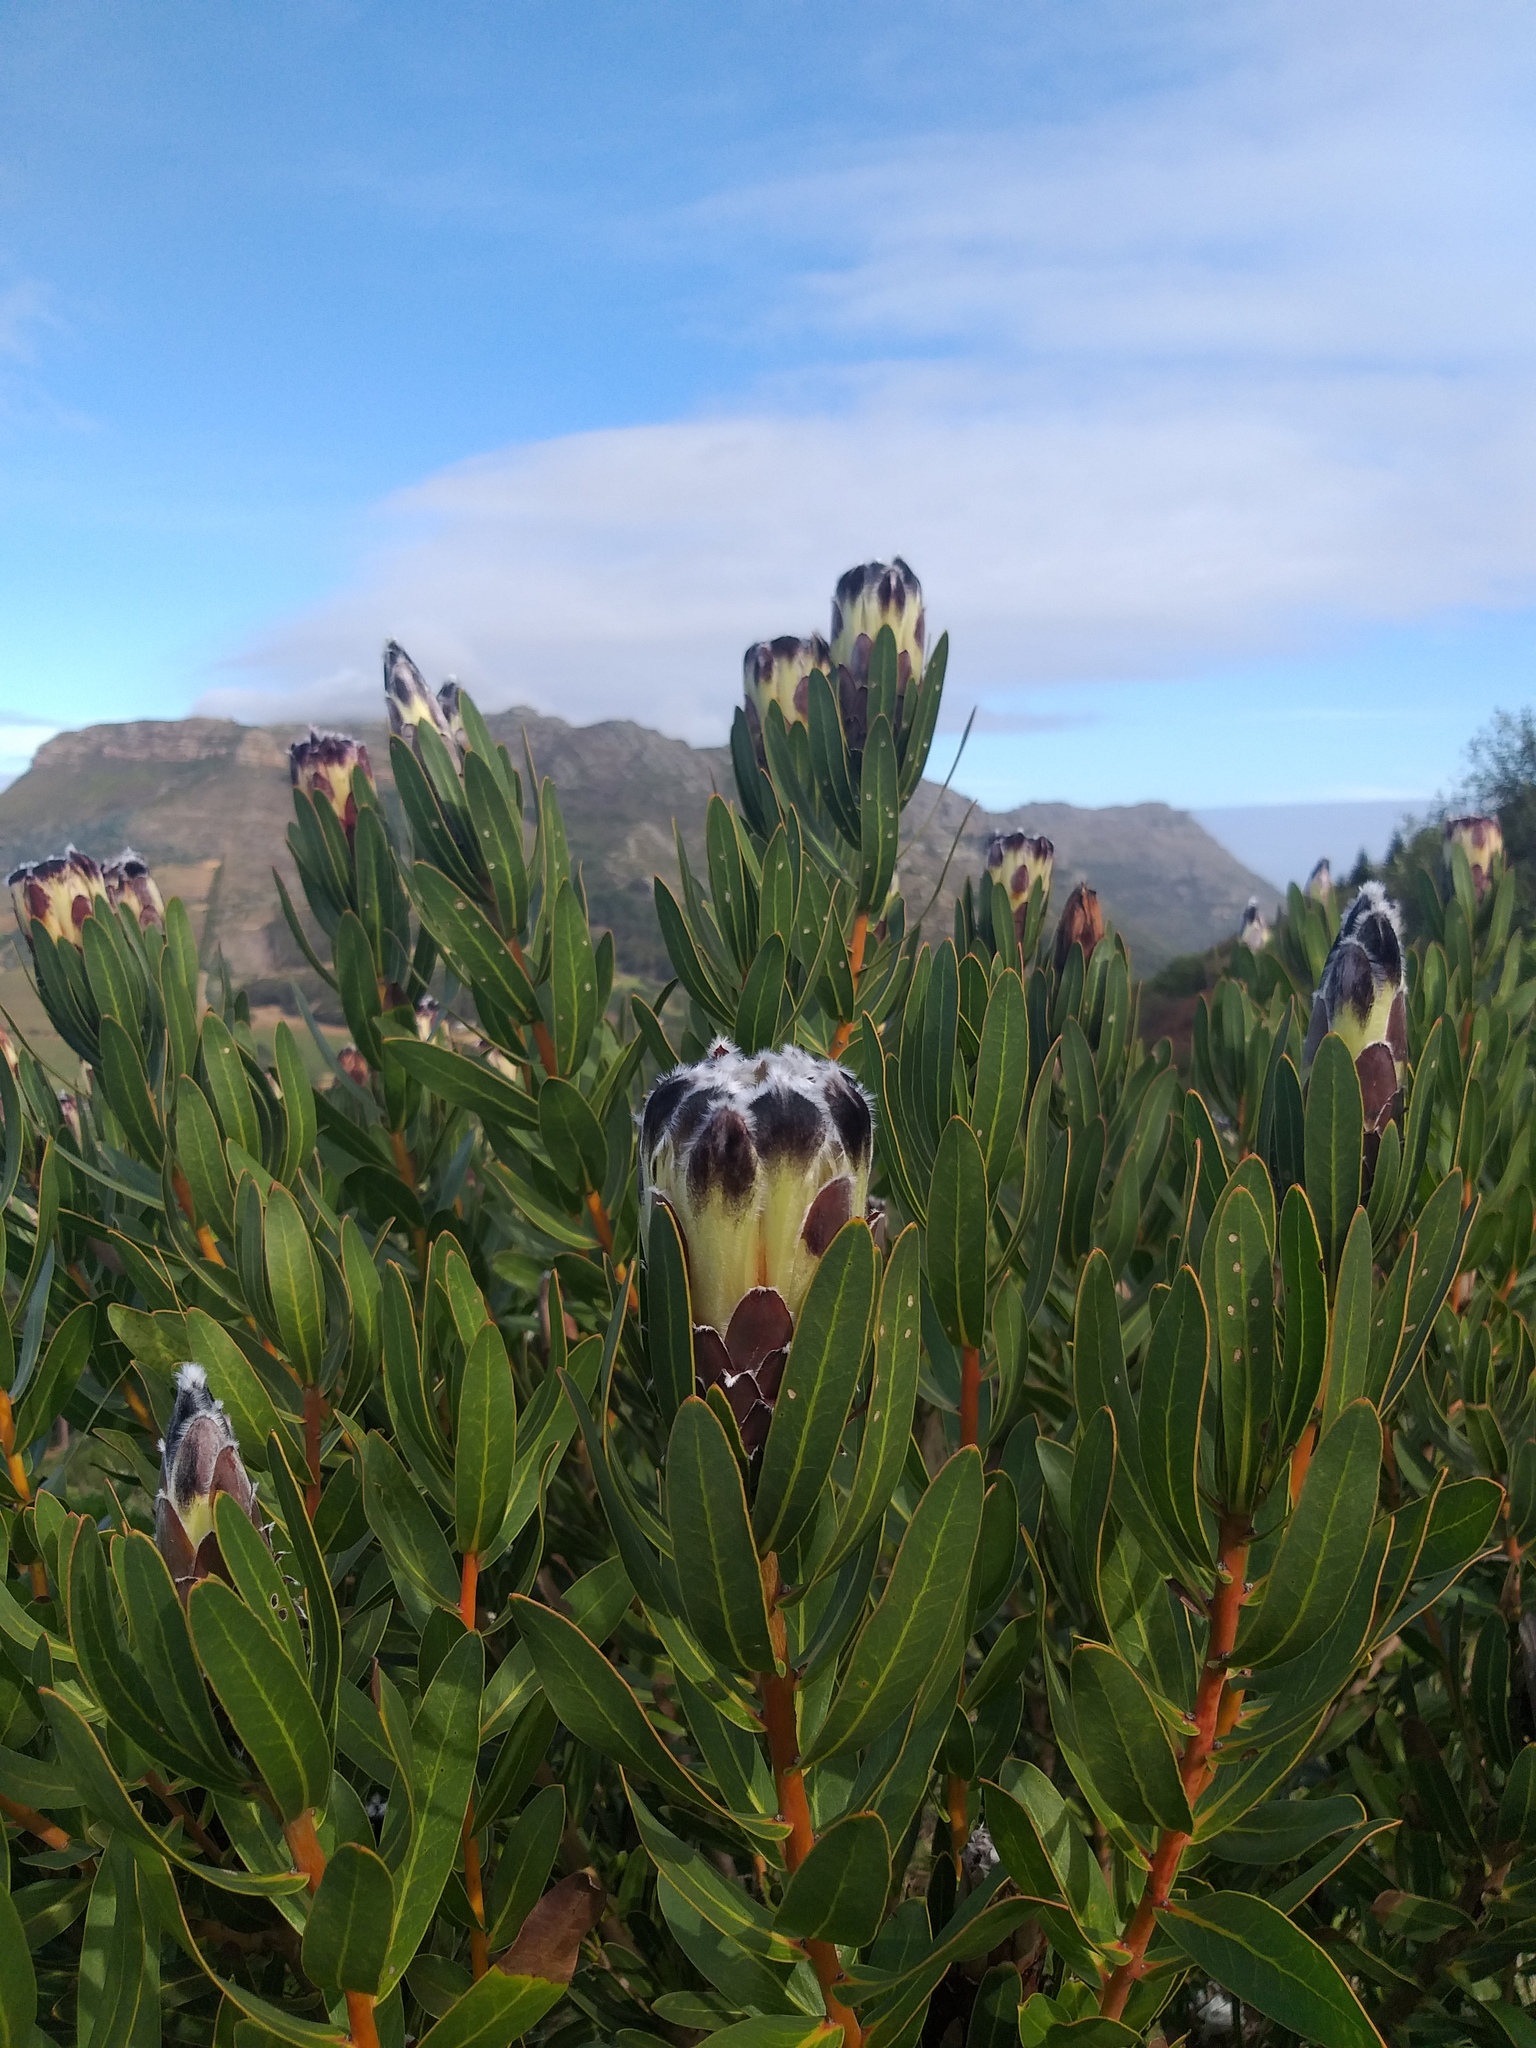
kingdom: Plantae
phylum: Tracheophyta
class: Magnoliopsida
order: Proteales
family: Proteaceae
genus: Protea
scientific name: Protea lepidocarpodendron
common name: Black-bearded protea
